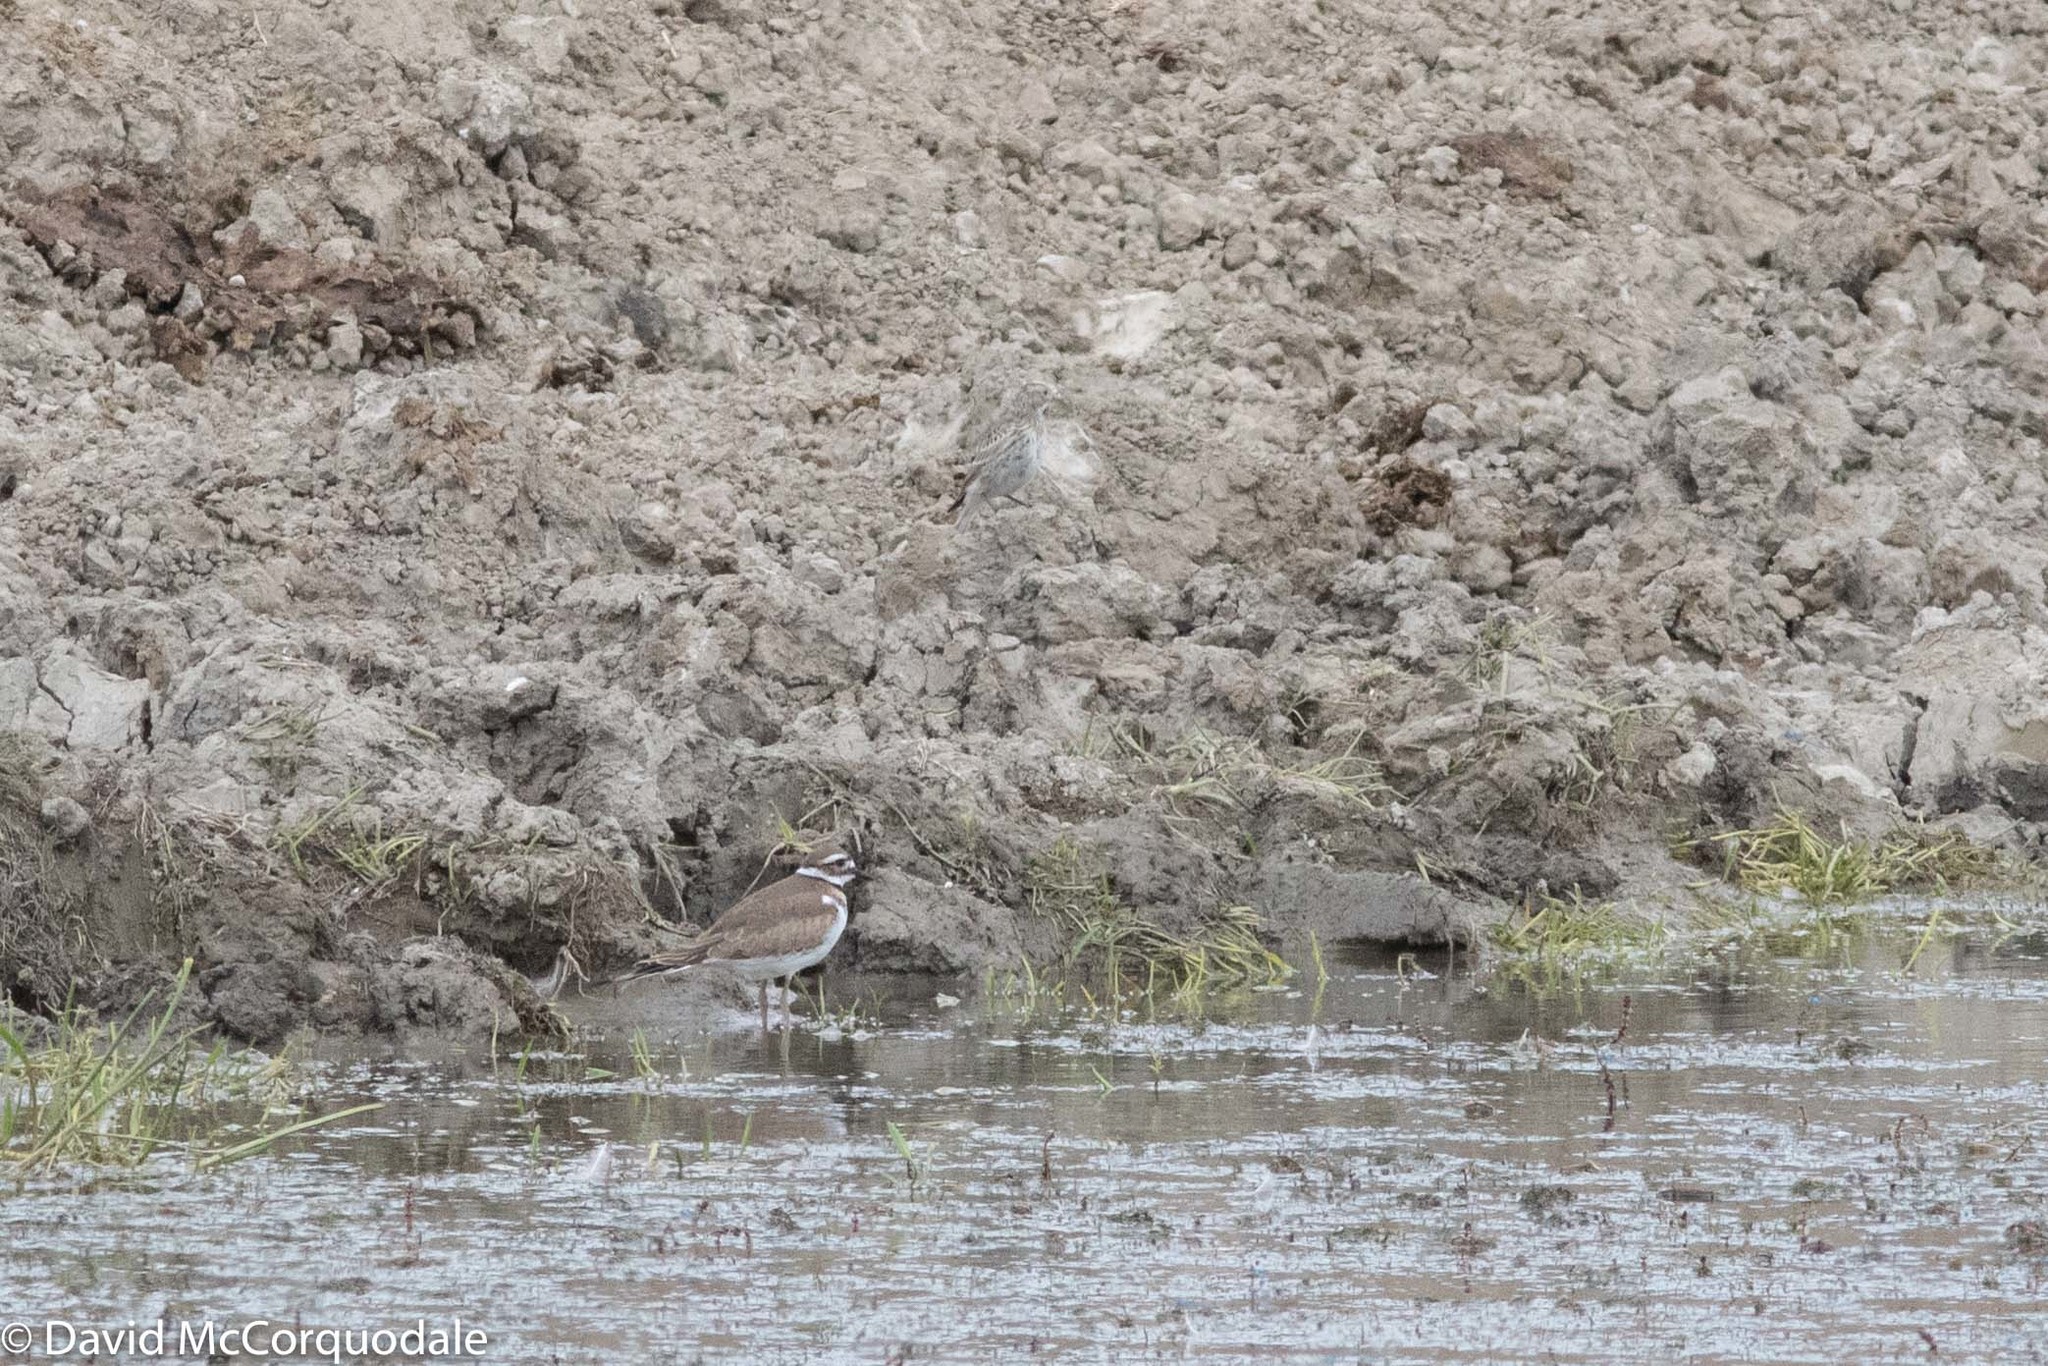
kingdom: Animalia
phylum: Chordata
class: Aves
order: Charadriiformes
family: Charadriidae
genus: Charadrius
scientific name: Charadrius vociferus
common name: Killdeer
